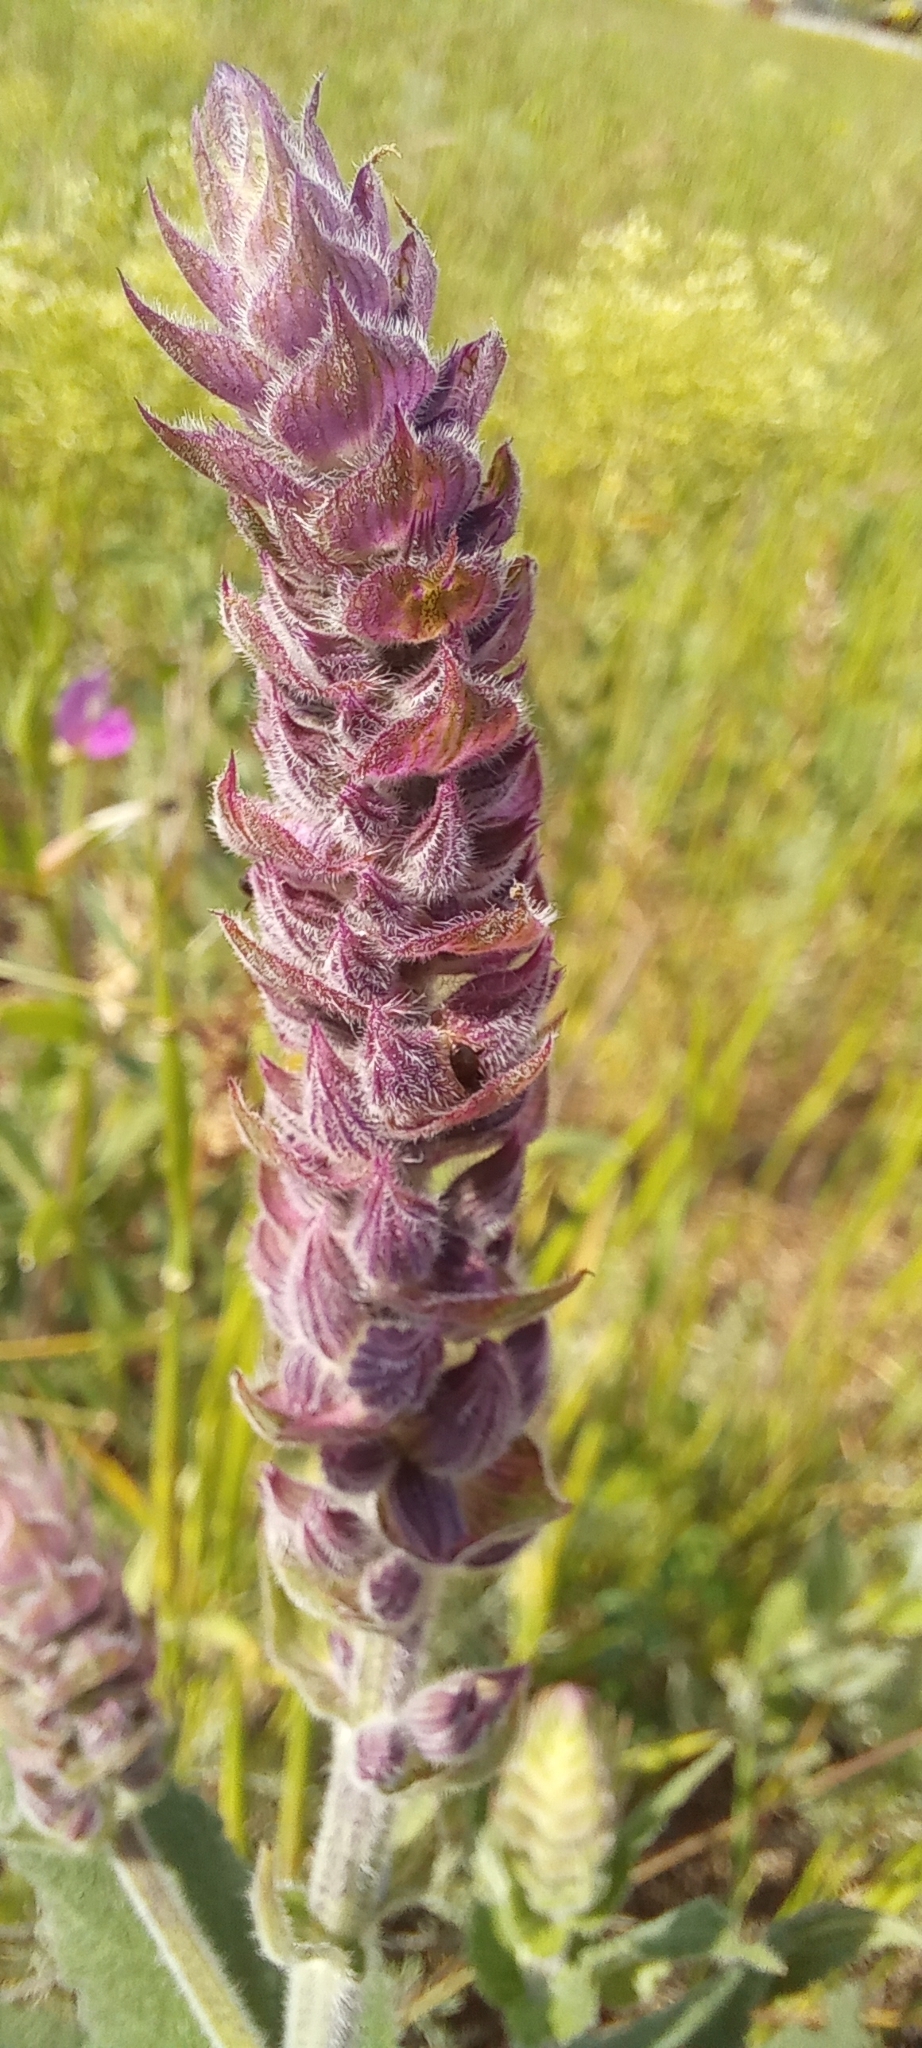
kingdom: Plantae
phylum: Tracheophyta
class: Magnoliopsida
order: Lamiales
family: Lamiaceae
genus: Salvia
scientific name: Salvia nemorosa
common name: Balkan clary
